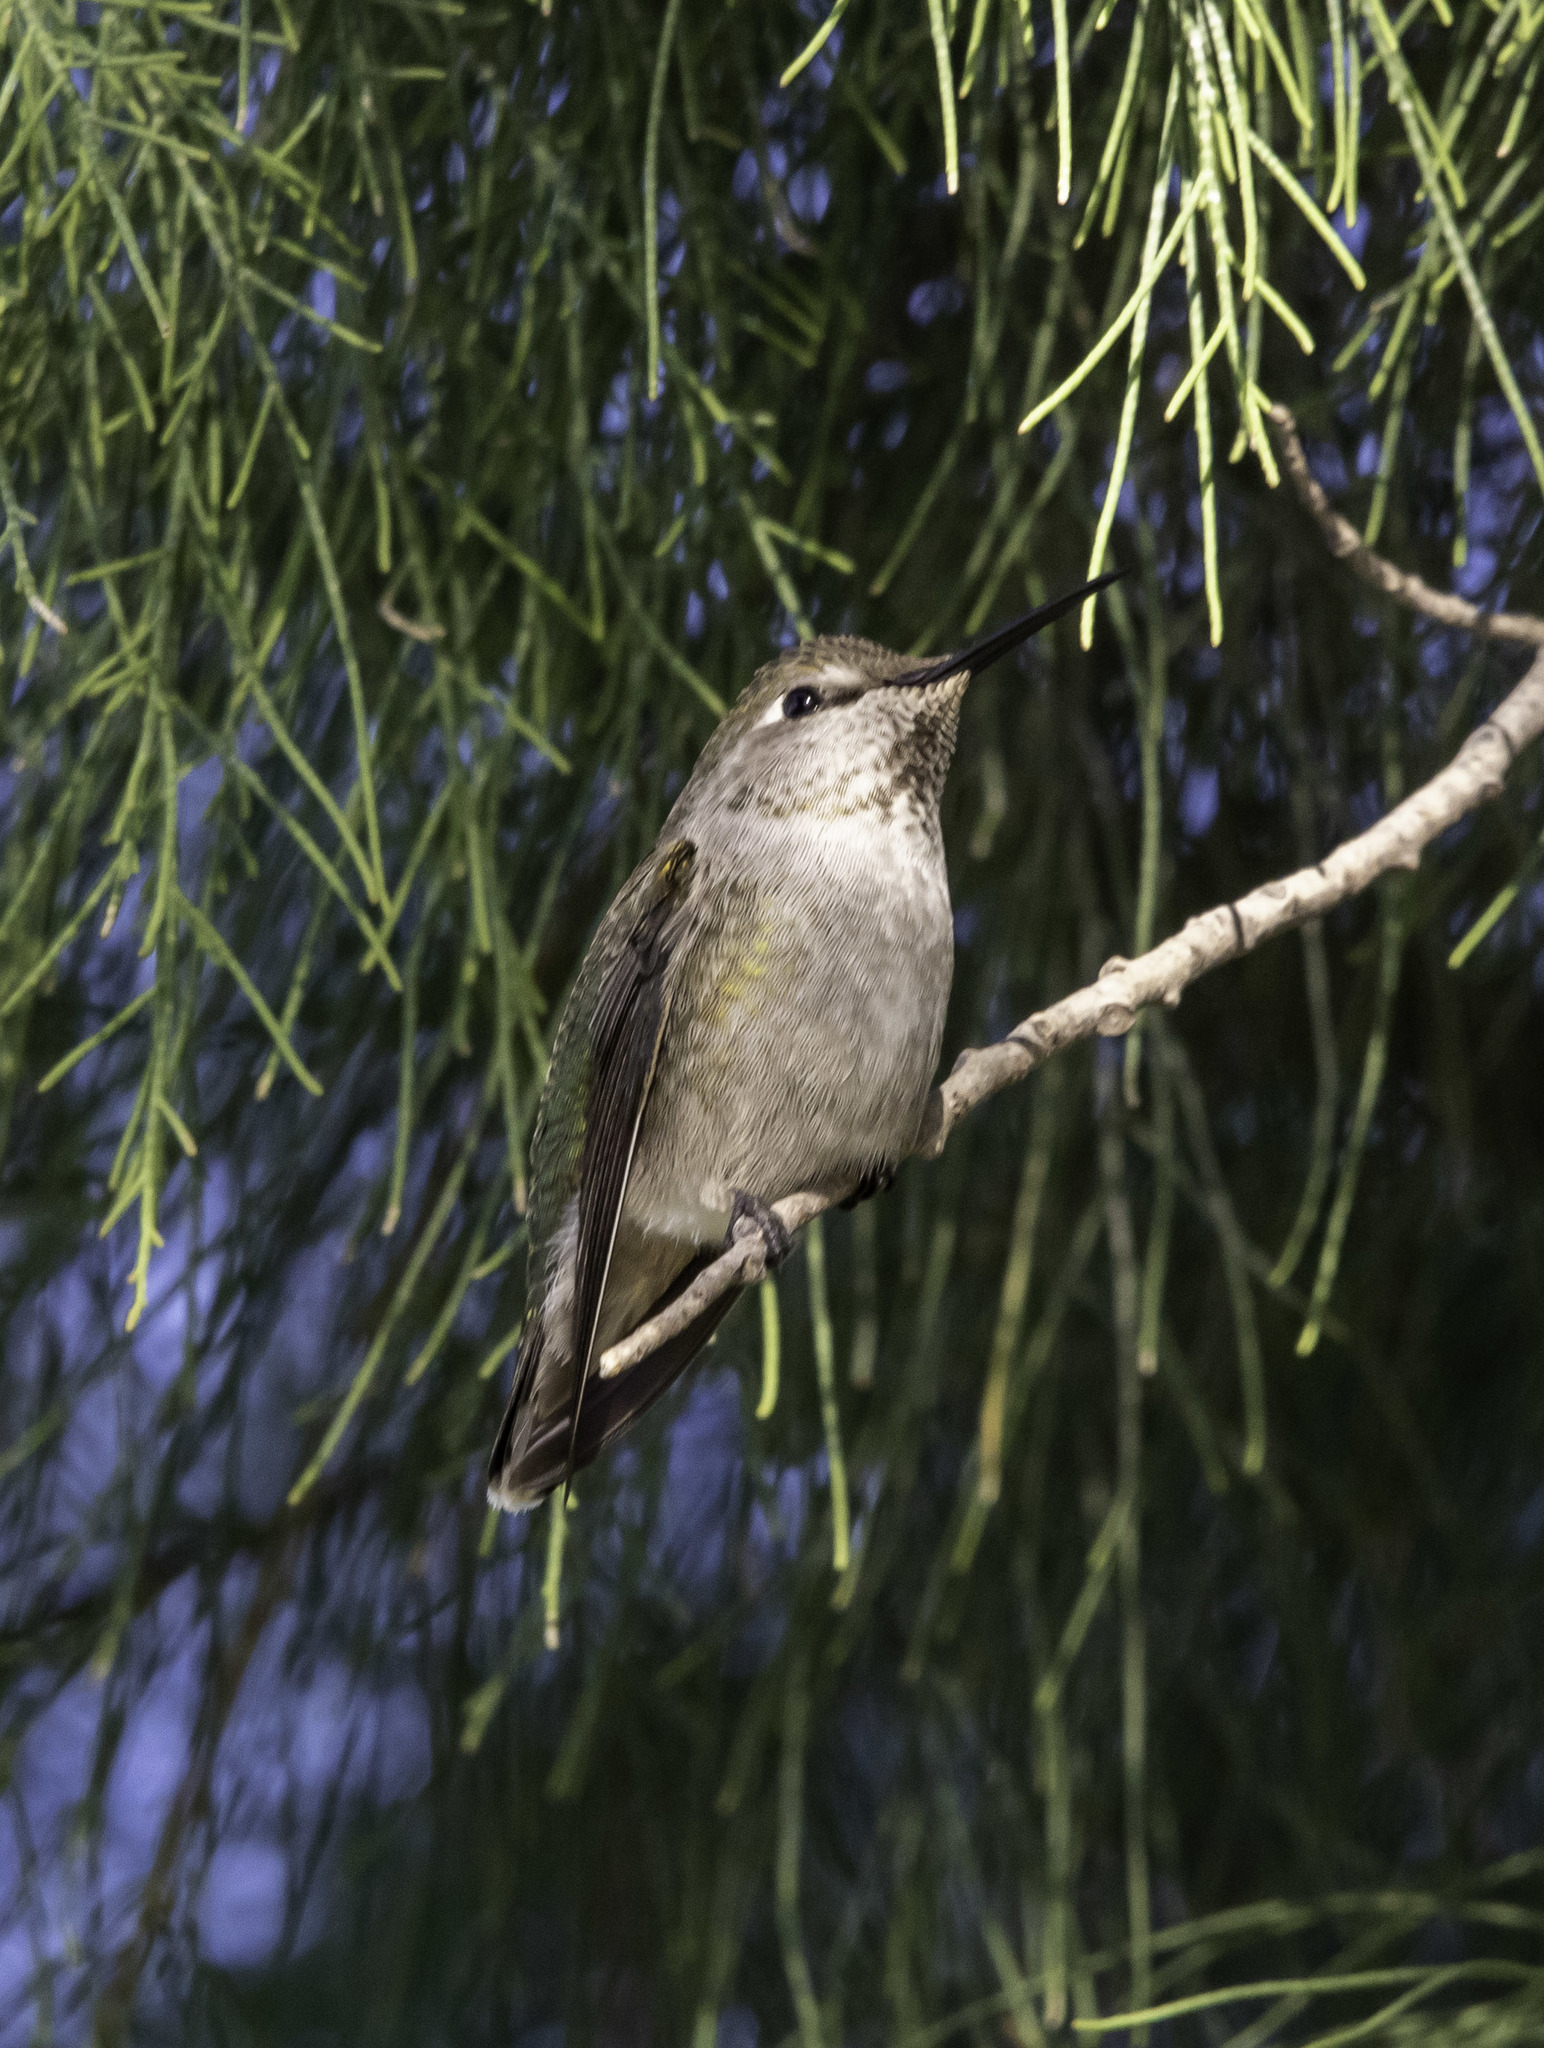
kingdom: Animalia
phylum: Chordata
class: Aves
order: Apodiformes
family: Trochilidae
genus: Calypte
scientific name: Calypte anna
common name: Anna's hummingbird
